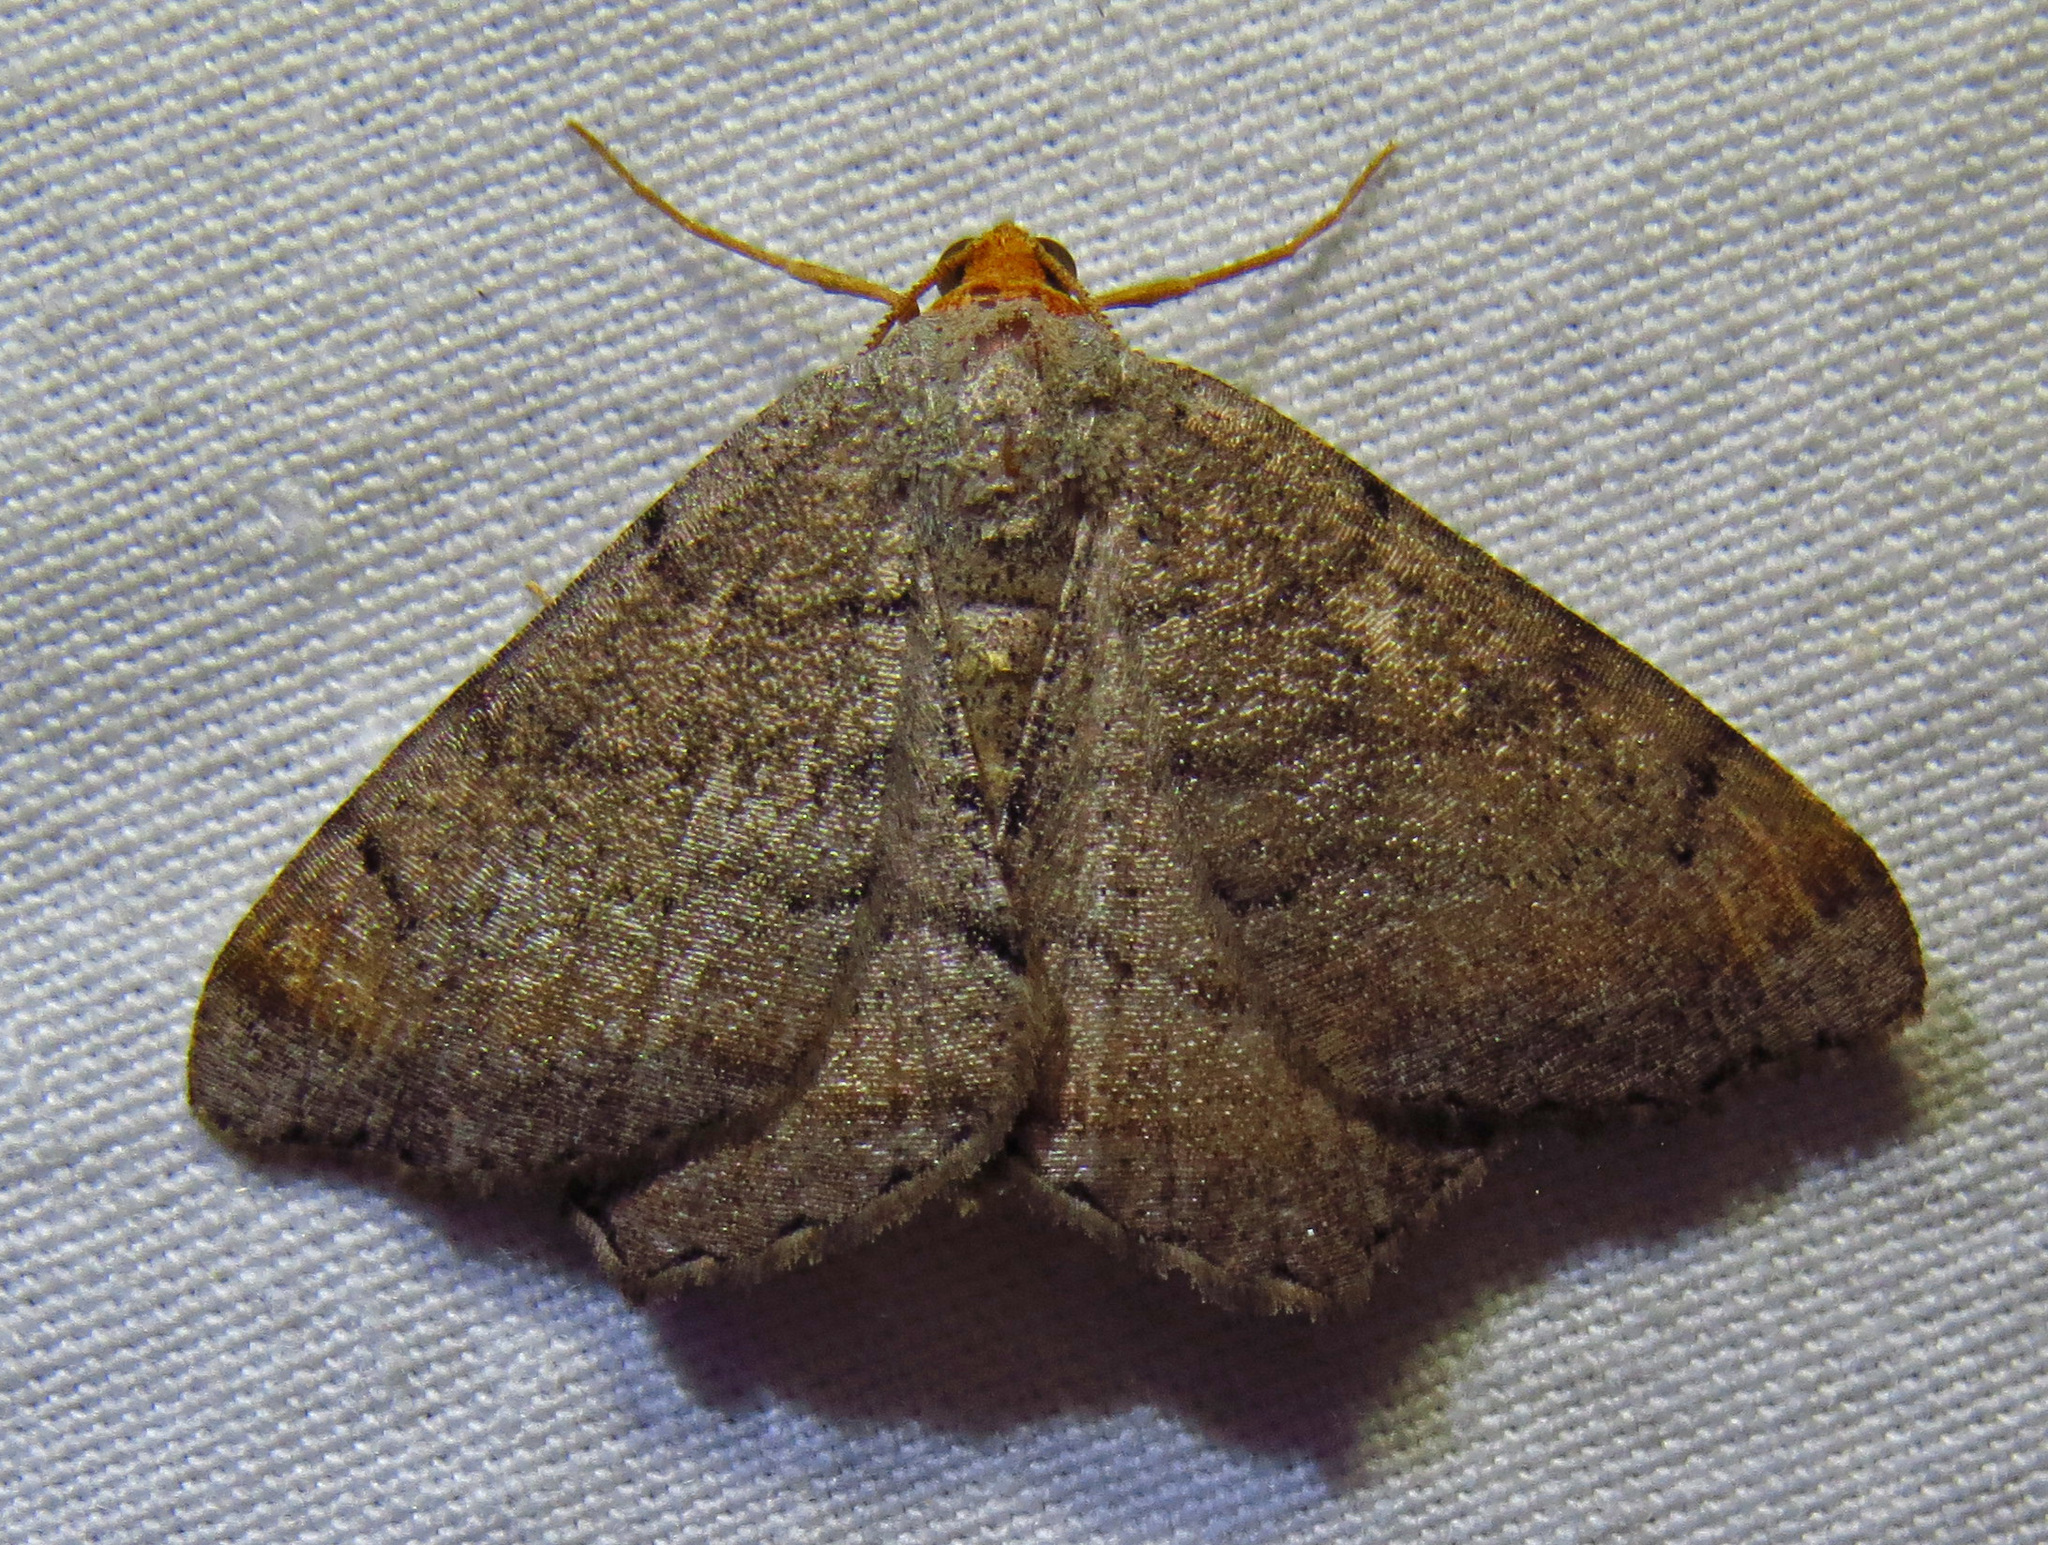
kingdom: Animalia
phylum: Arthropoda
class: Insecta
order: Lepidoptera
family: Geometridae
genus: Macaria
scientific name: Macaria transitaria
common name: Blurry chocolate angle
